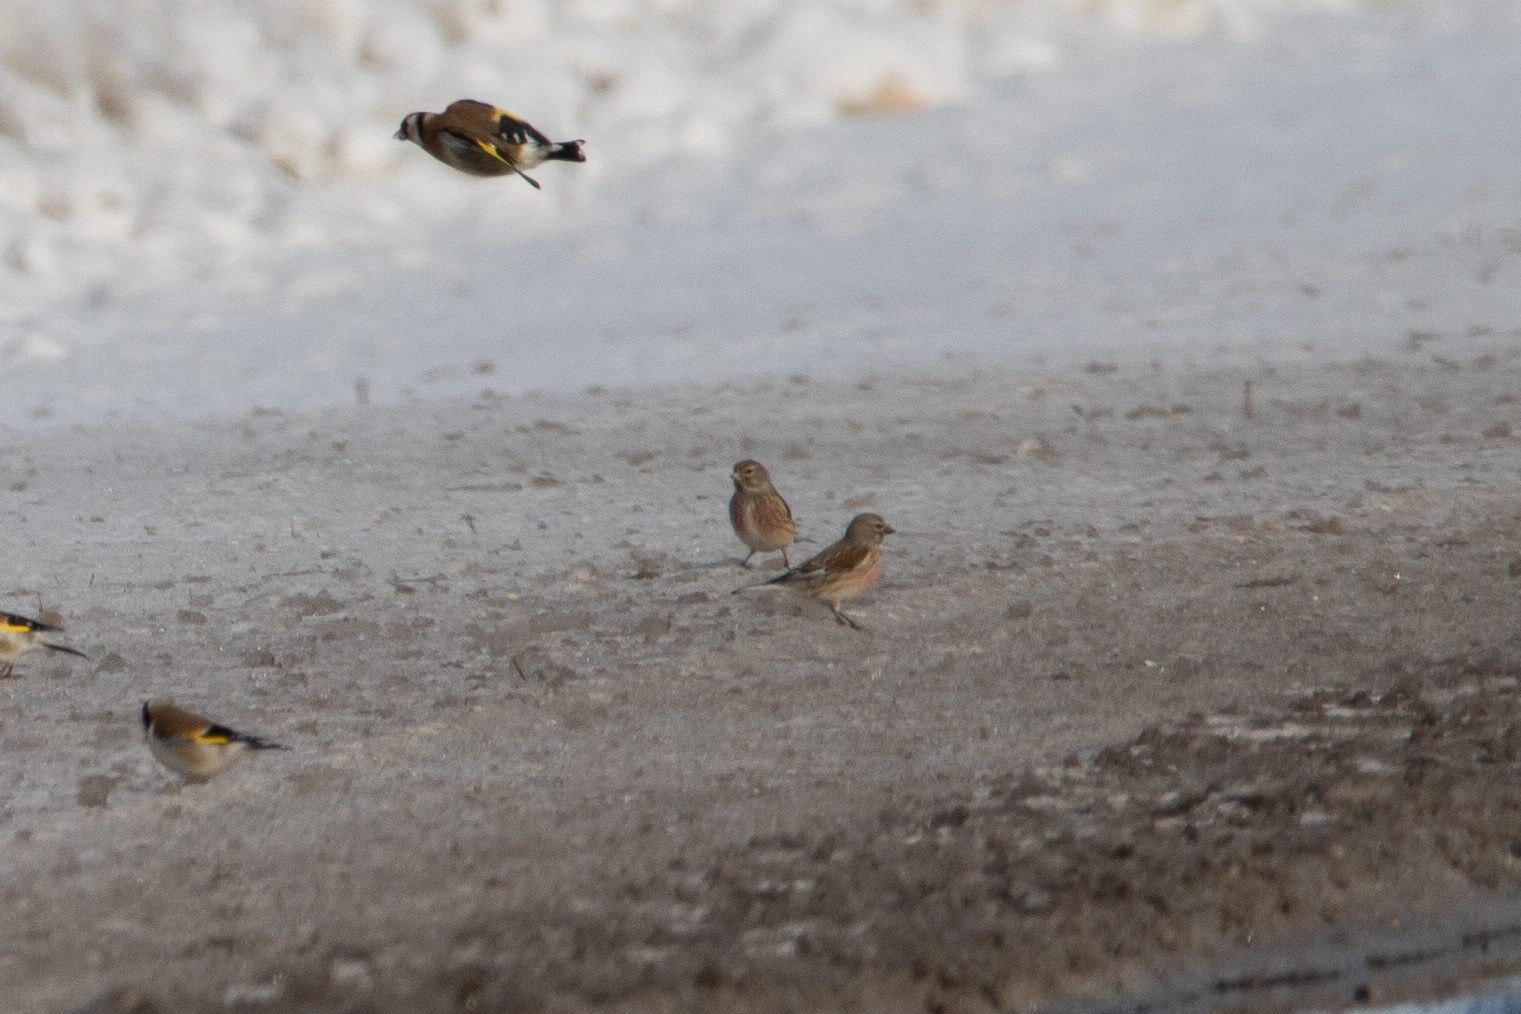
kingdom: Animalia
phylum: Chordata
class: Aves
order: Passeriformes
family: Fringillidae
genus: Linaria
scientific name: Linaria cannabina
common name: Common linnet
